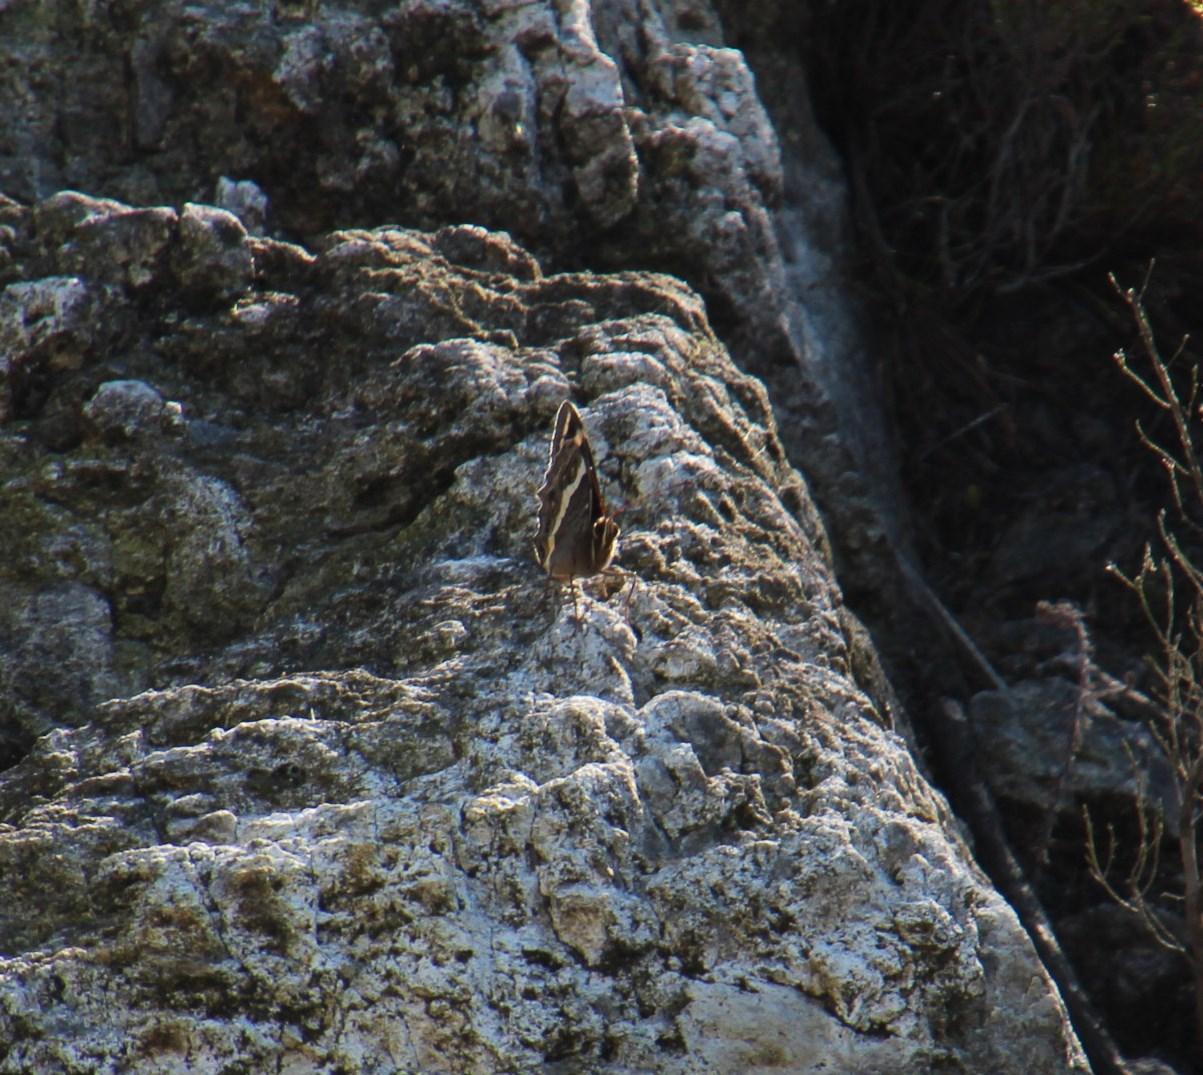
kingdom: Animalia
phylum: Arthropoda
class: Insecta
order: Lepidoptera
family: Nymphalidae
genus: Meneris
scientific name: Meneris Aeropetes tulbaghia
